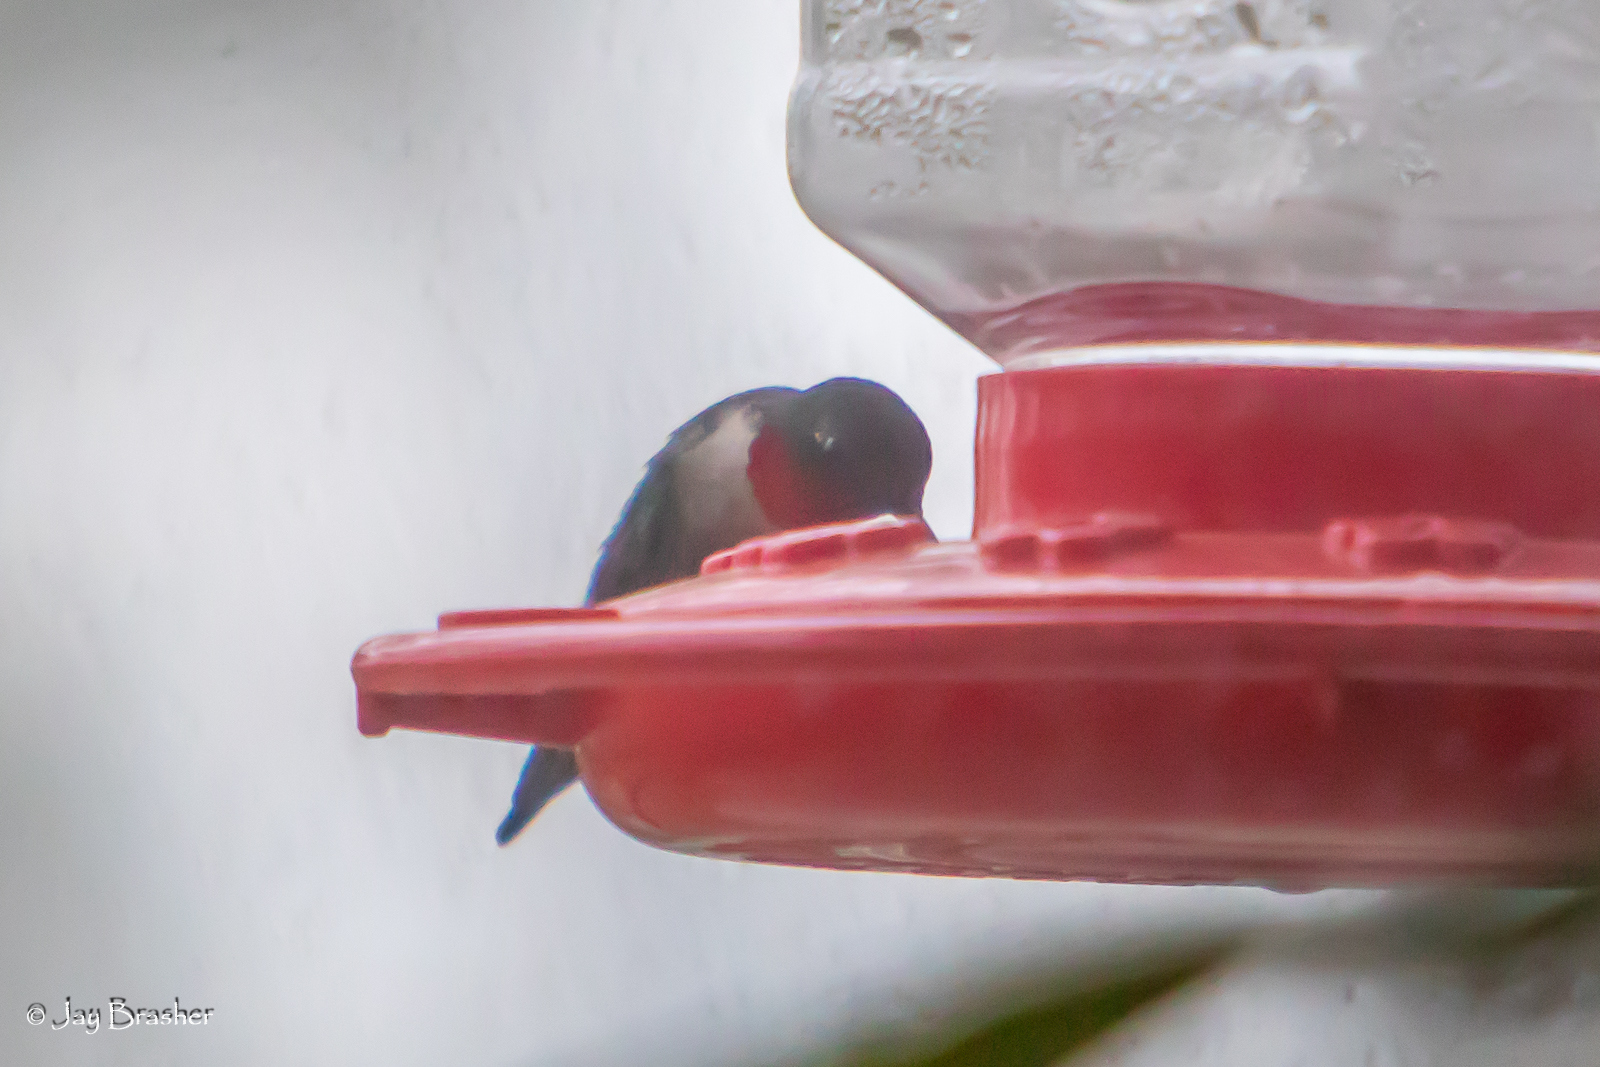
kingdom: Animalia
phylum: Chordata
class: Aves
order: Apodiformes
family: Trochilidae
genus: Archilochus
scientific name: Archilochus colubris
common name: Ruby-throated hummingbird
